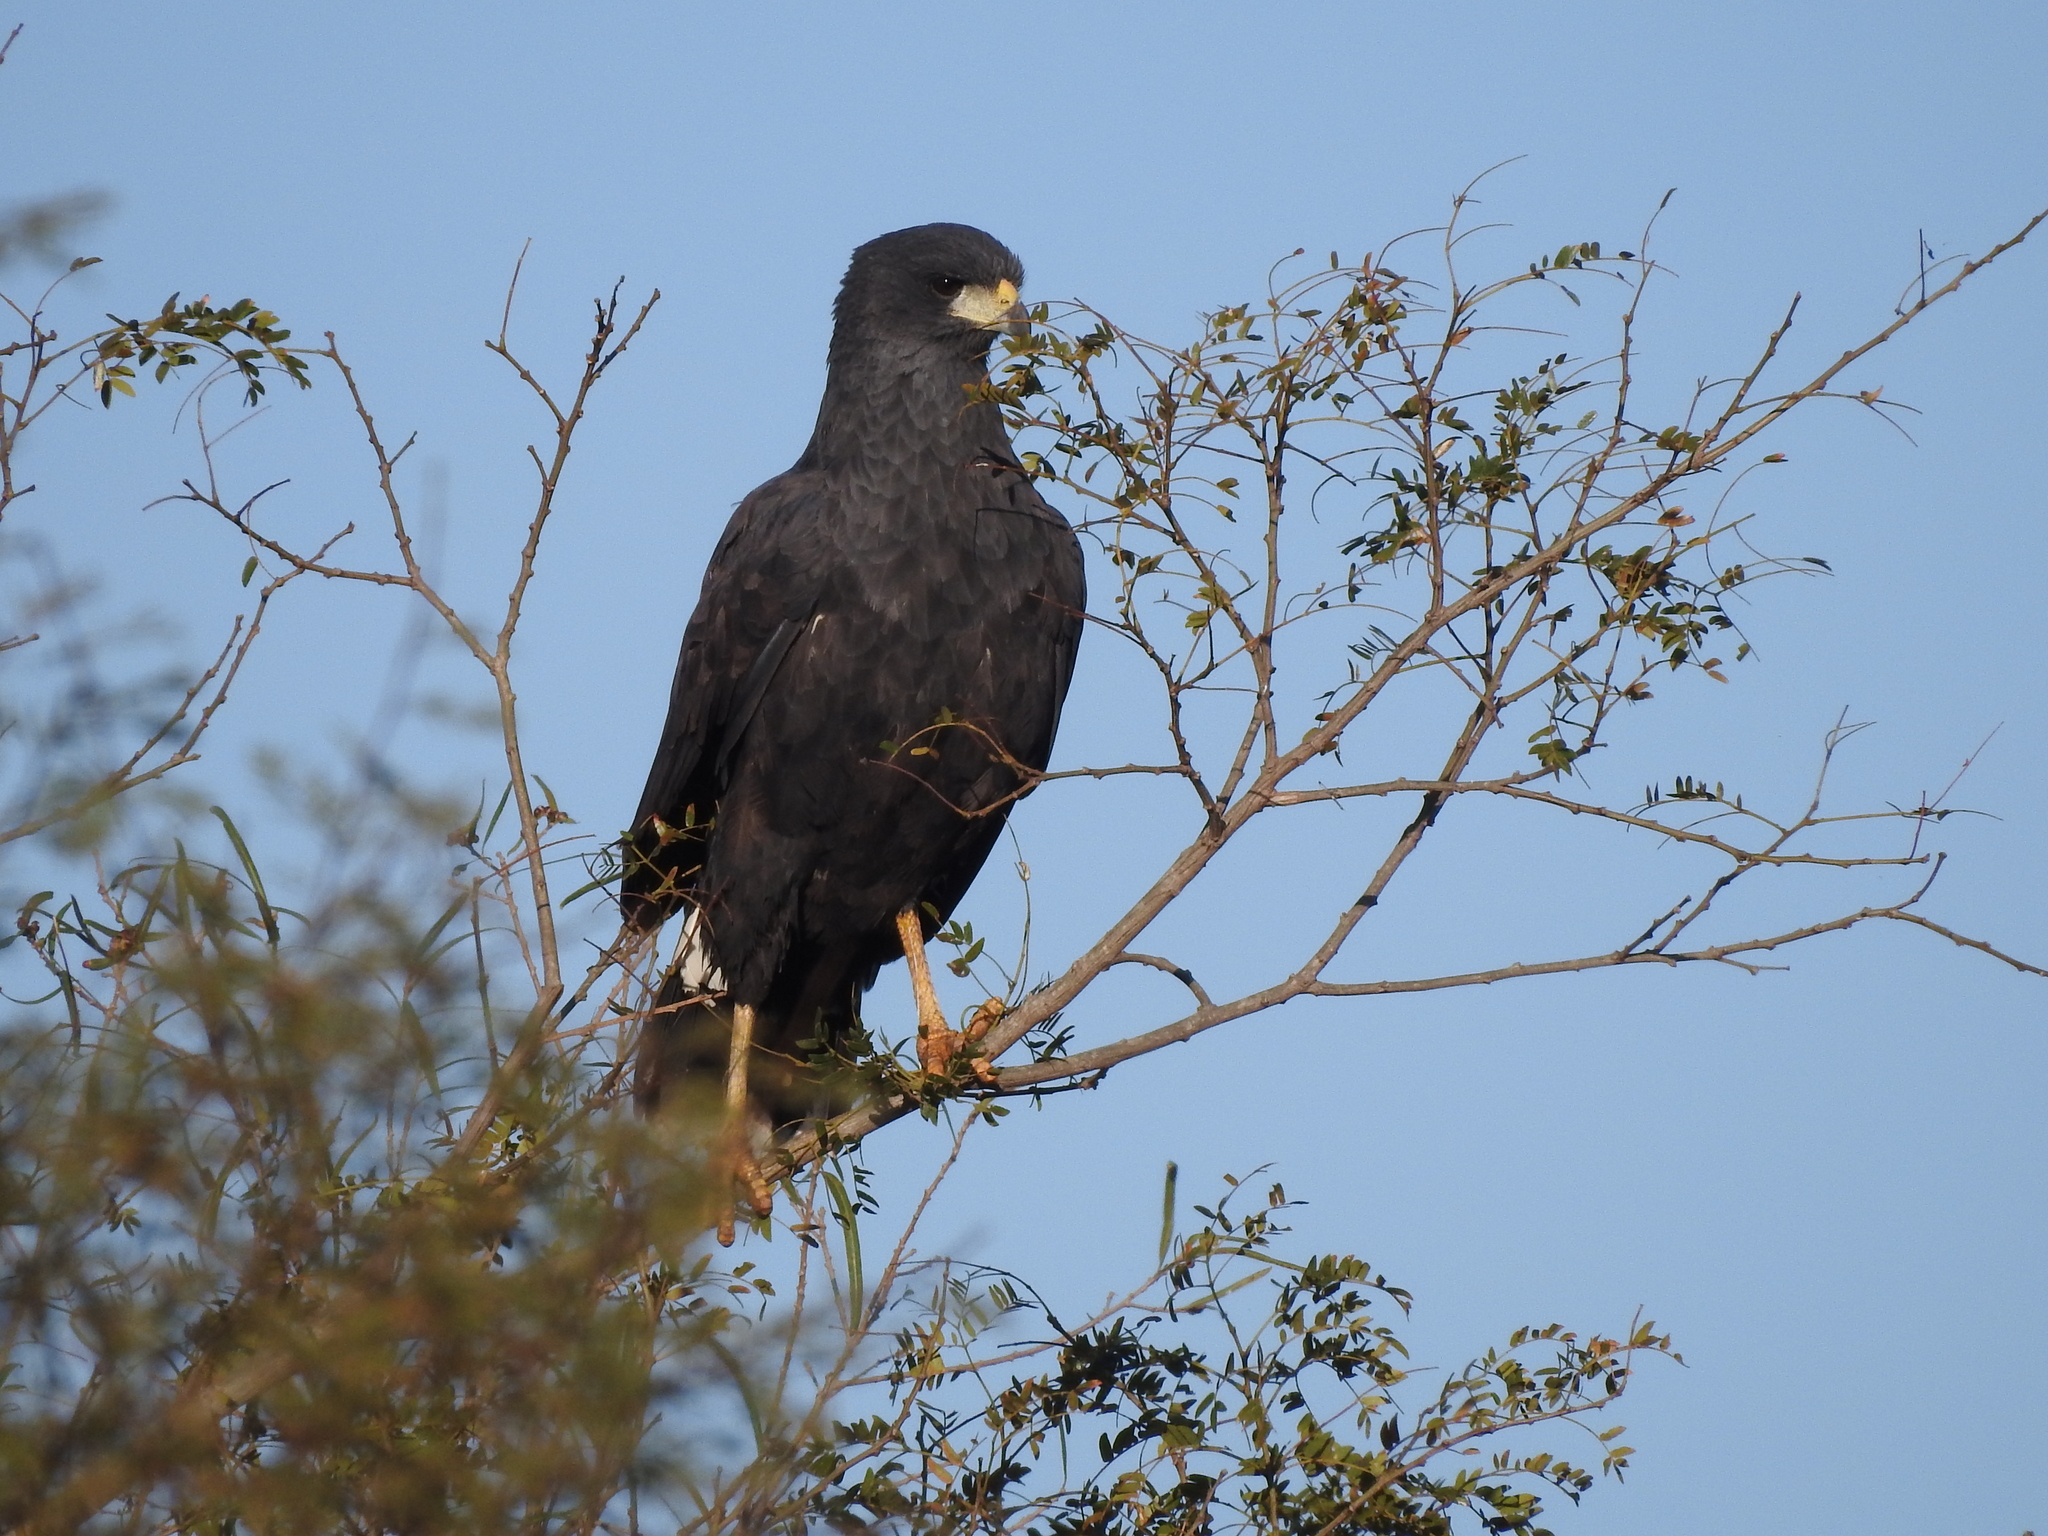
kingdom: Animalia
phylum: Chordata
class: Aves
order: Accipitriformes
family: Accipitridae
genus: Buteogallus
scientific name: Buteogallus urubitinga
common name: Great black hawk
